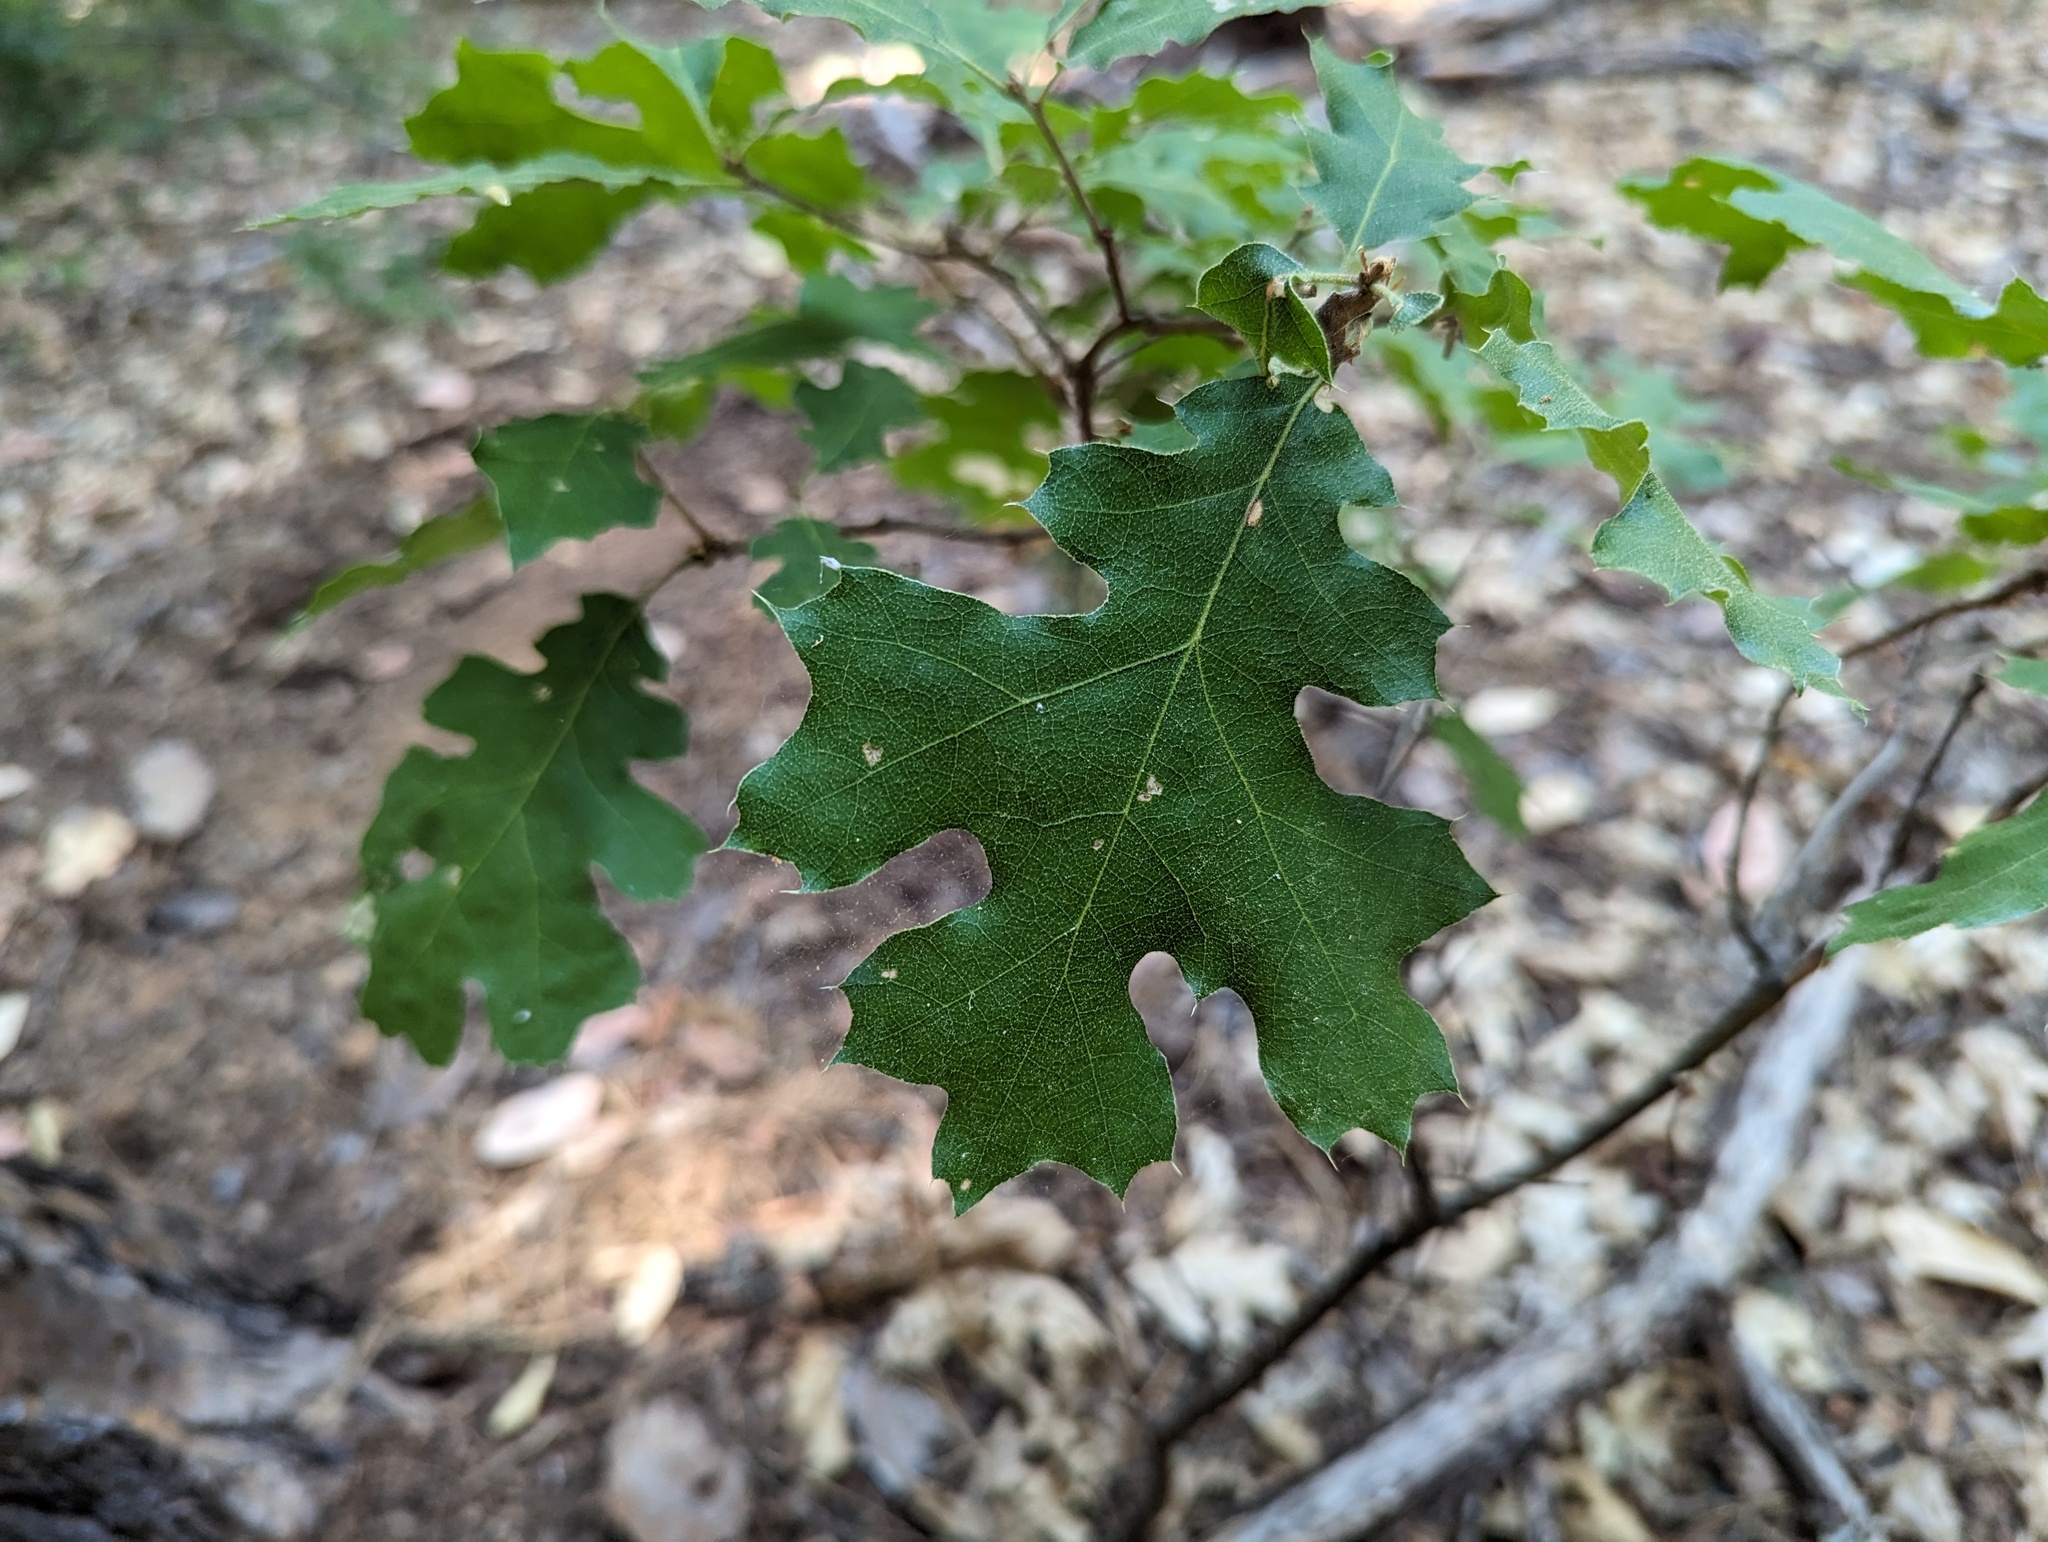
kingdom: Plantae
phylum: Tracheophyta
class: Magnoliopsida
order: Fagales
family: Fagaceae
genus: Quercus
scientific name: Quercus kelloggii
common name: California black oak
